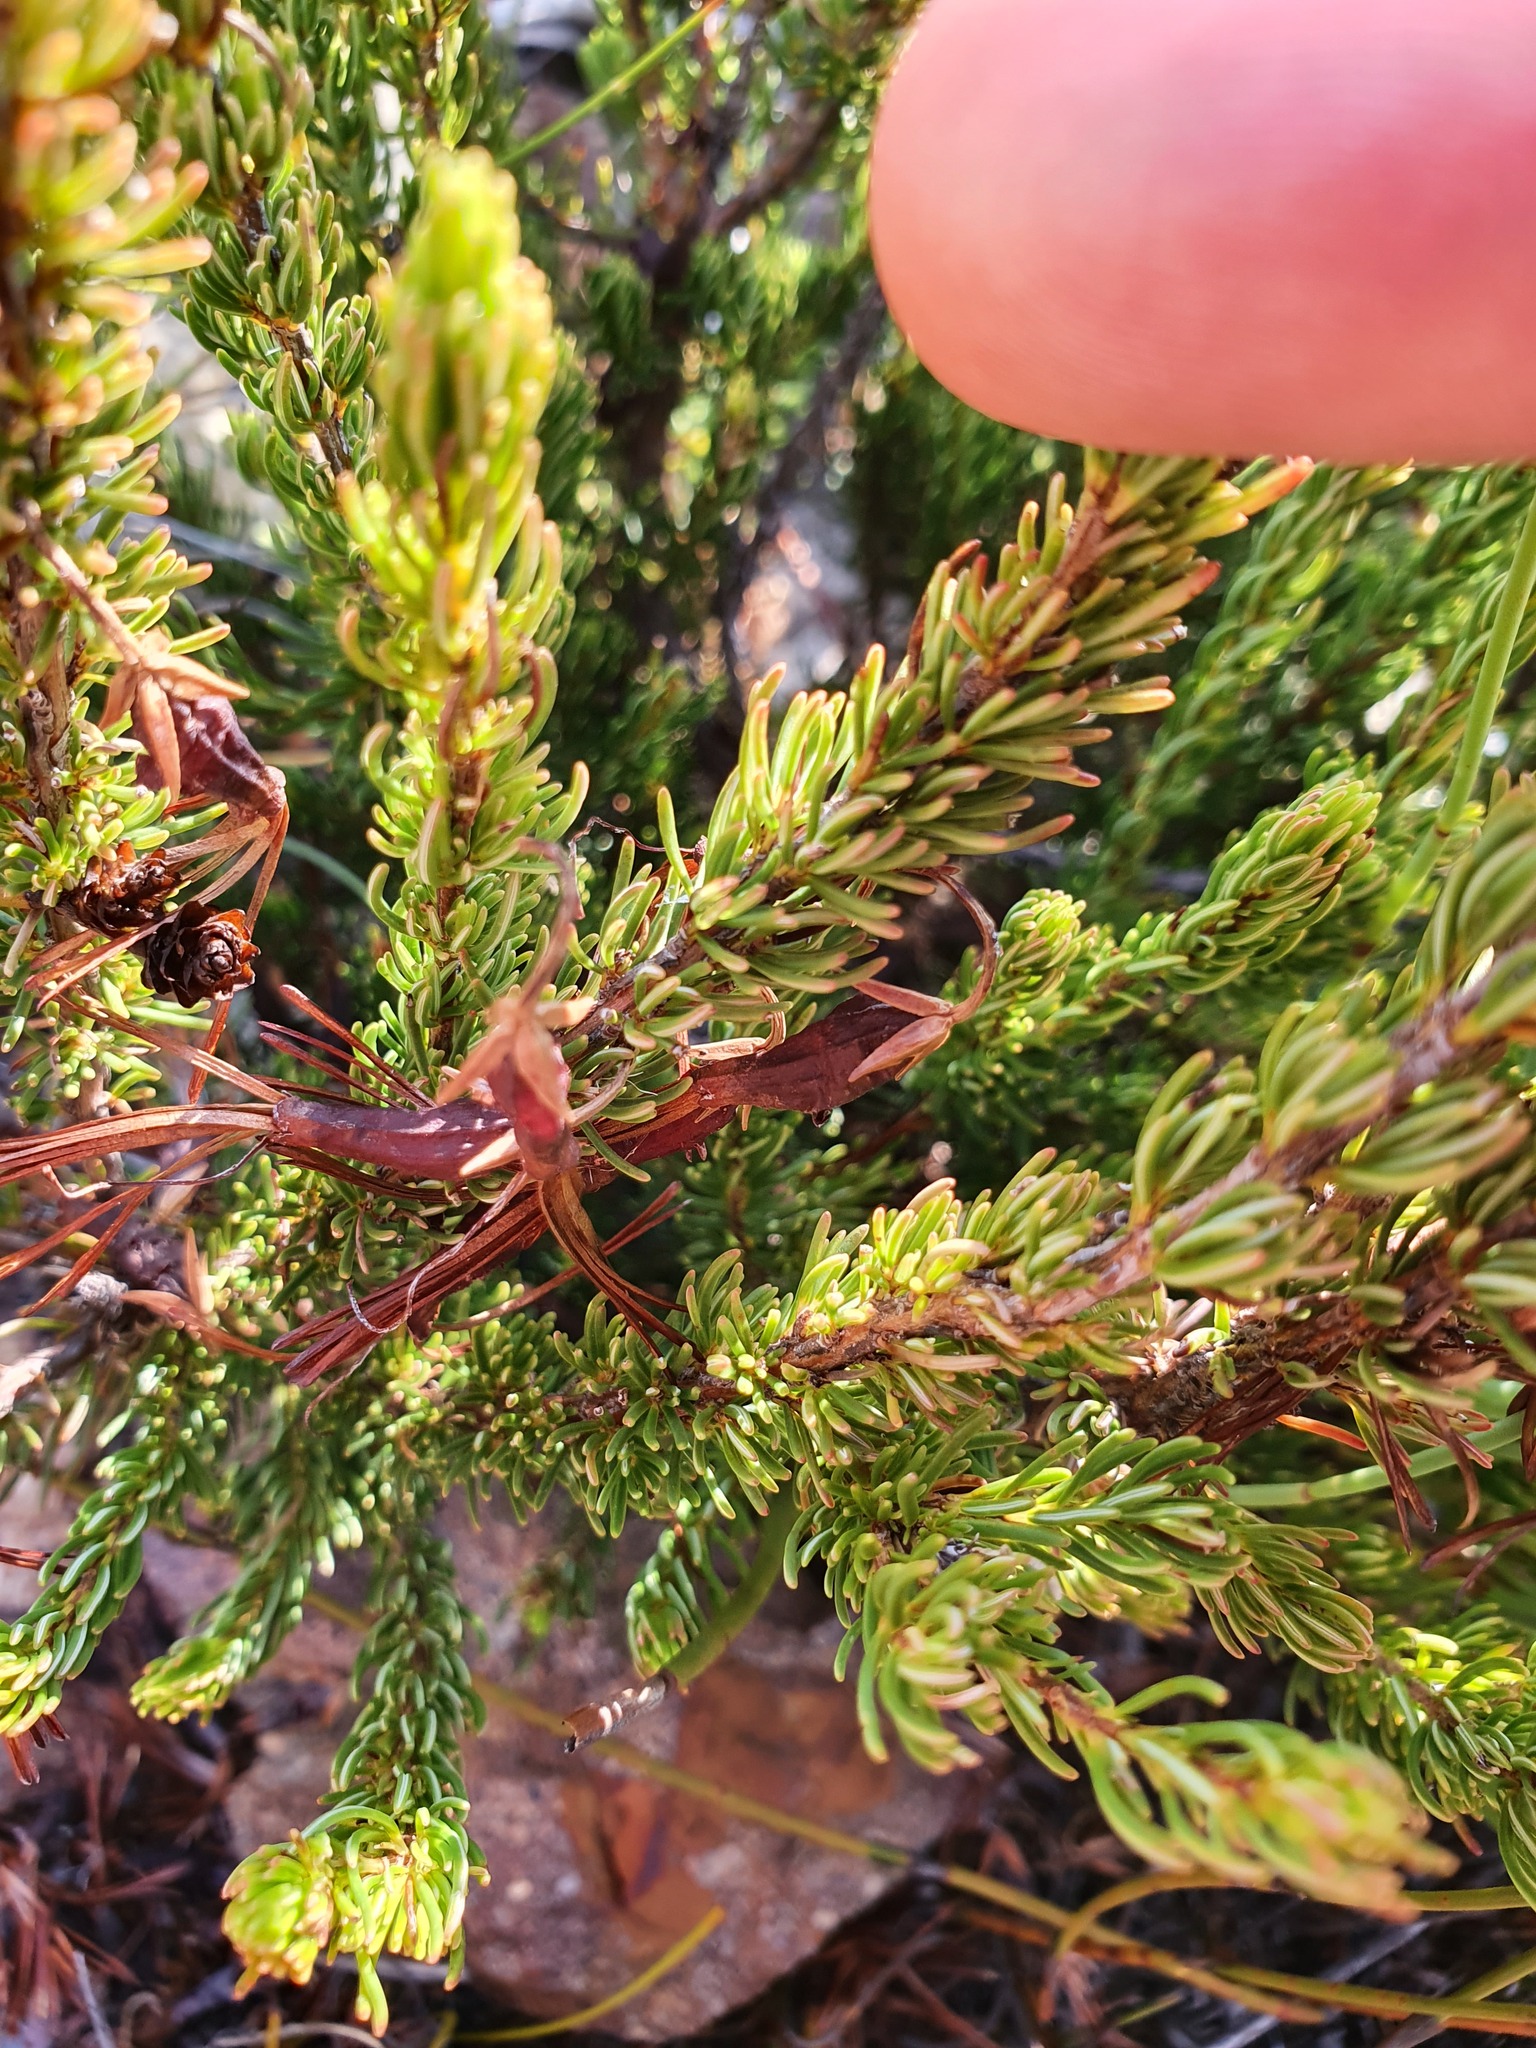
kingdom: Plantae
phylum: Tracheophyta
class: Magnoliopsida
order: Ericales
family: Ericaceae
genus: Erica
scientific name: Erica plukenetii
